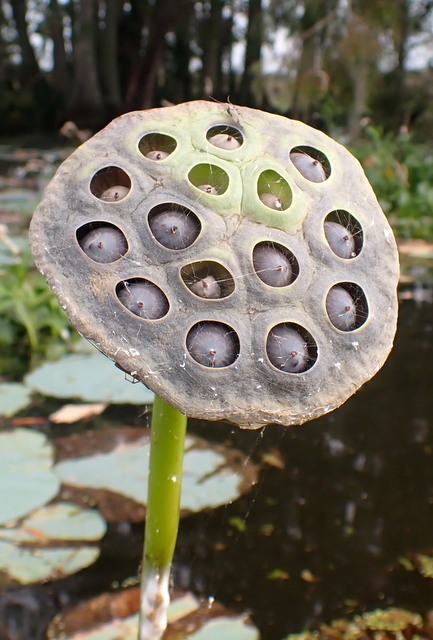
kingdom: Plantae
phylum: Tracheophyta
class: Magnoliopsida
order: Proteales
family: Nelumbonaceae
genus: Nelumbo
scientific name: Nelumbo lutea
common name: American lotus
